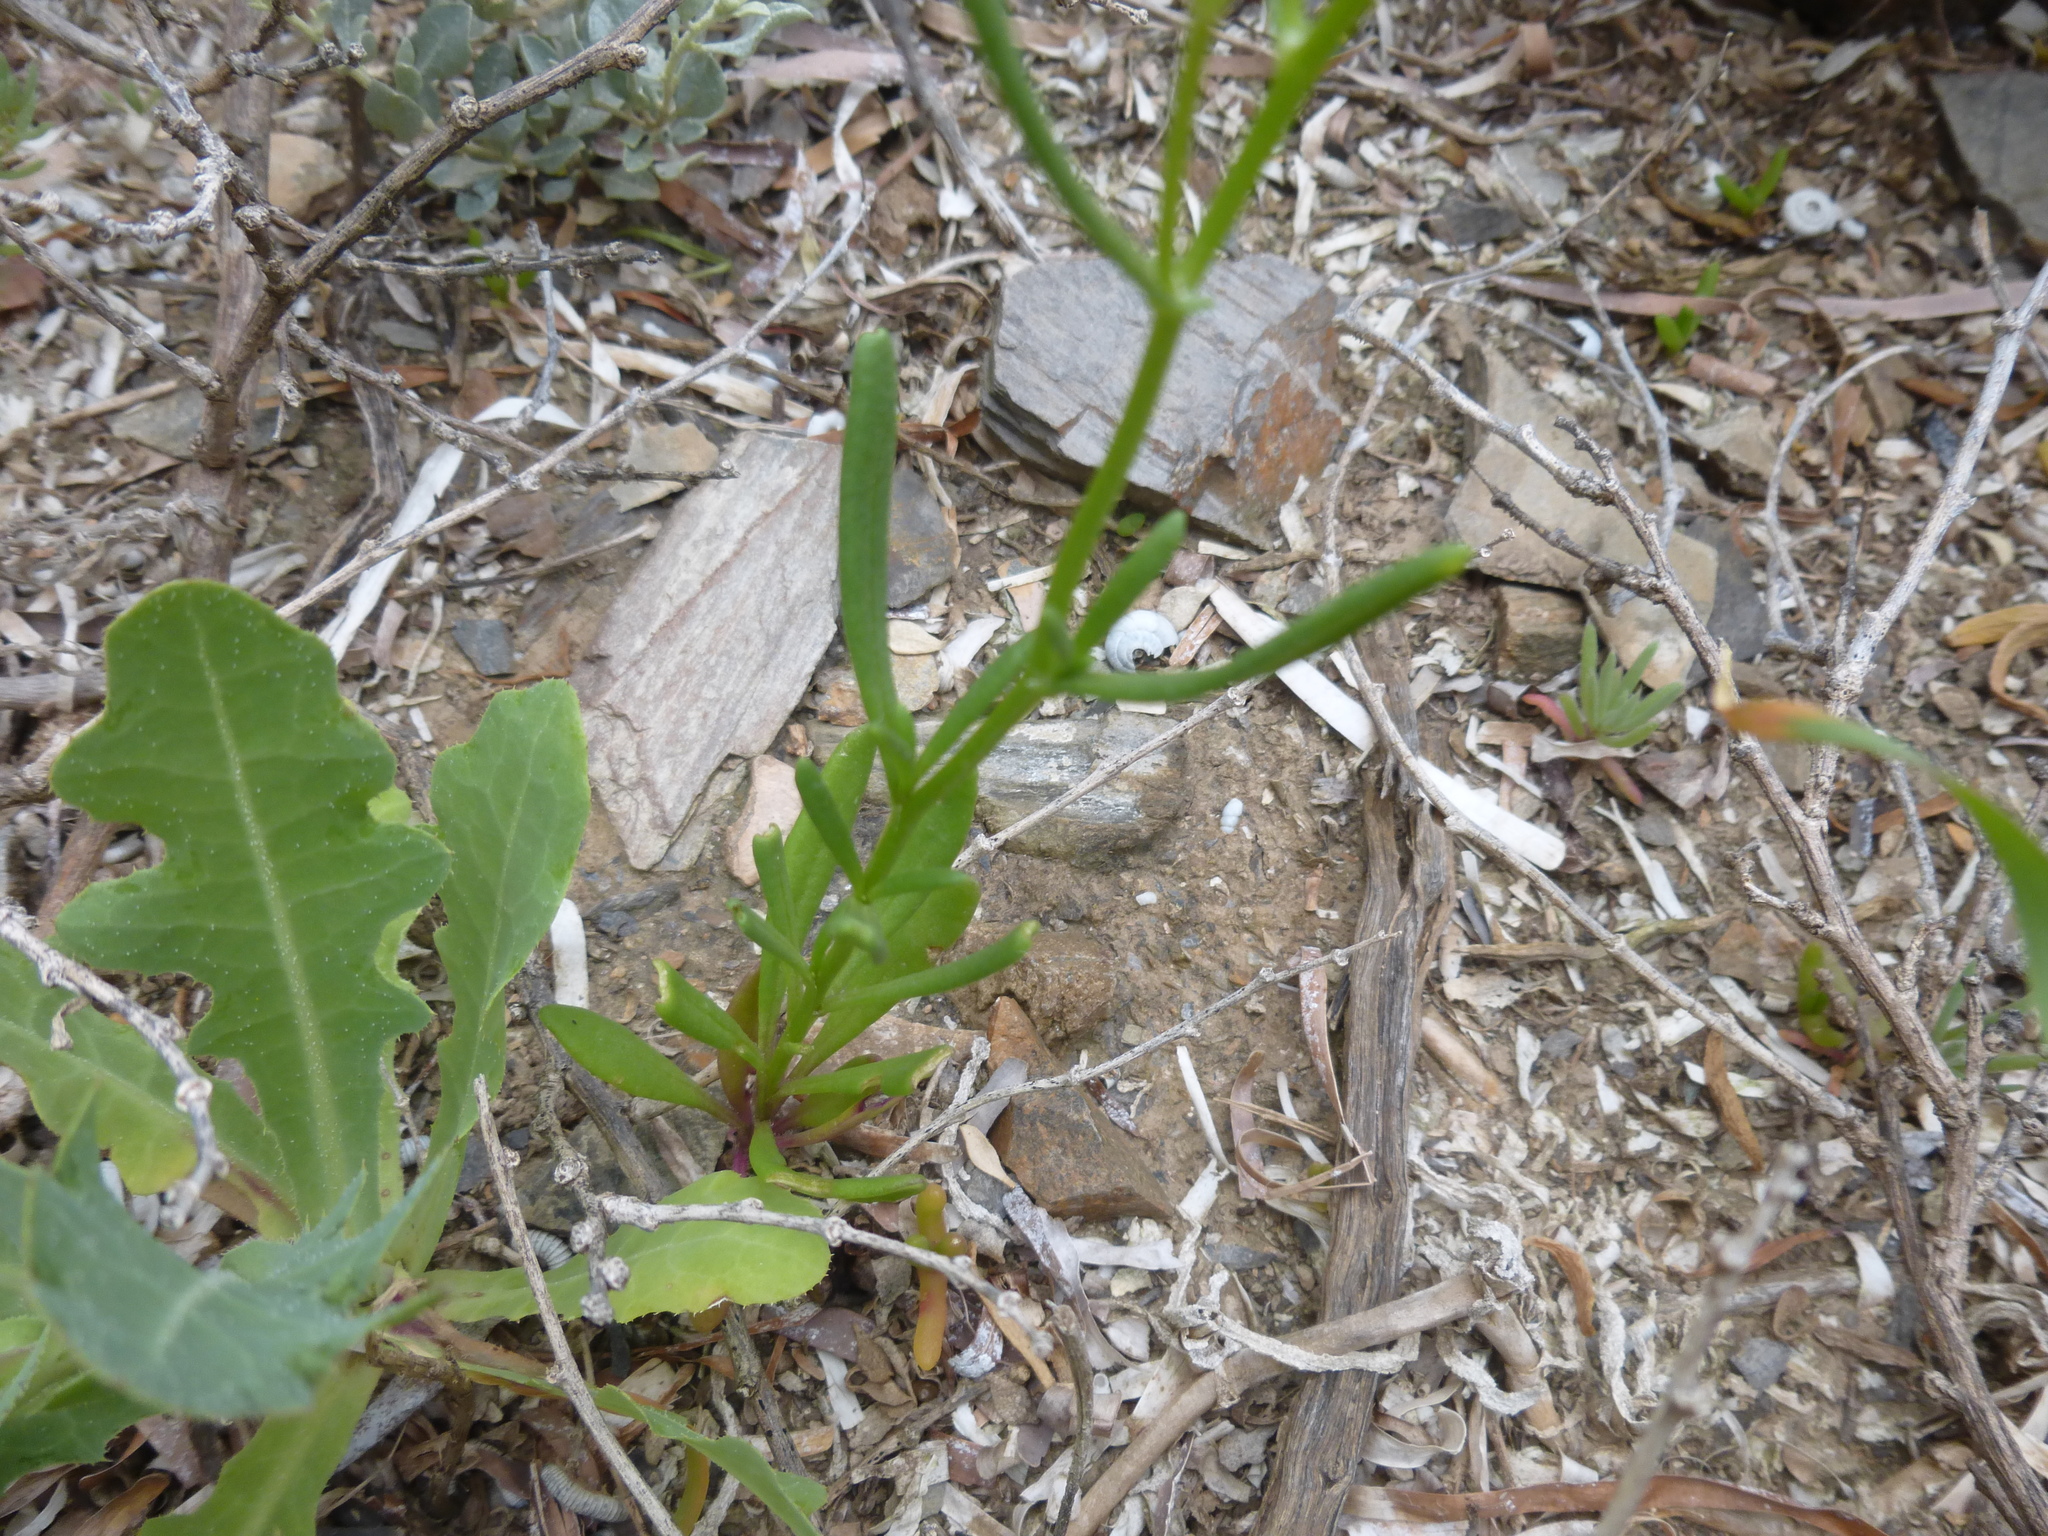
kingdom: Plantae
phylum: Tracheophyta
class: Magnoliopsida
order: Asterales
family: Asteraceae
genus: Senecio
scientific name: Senecio pinnatifolius
